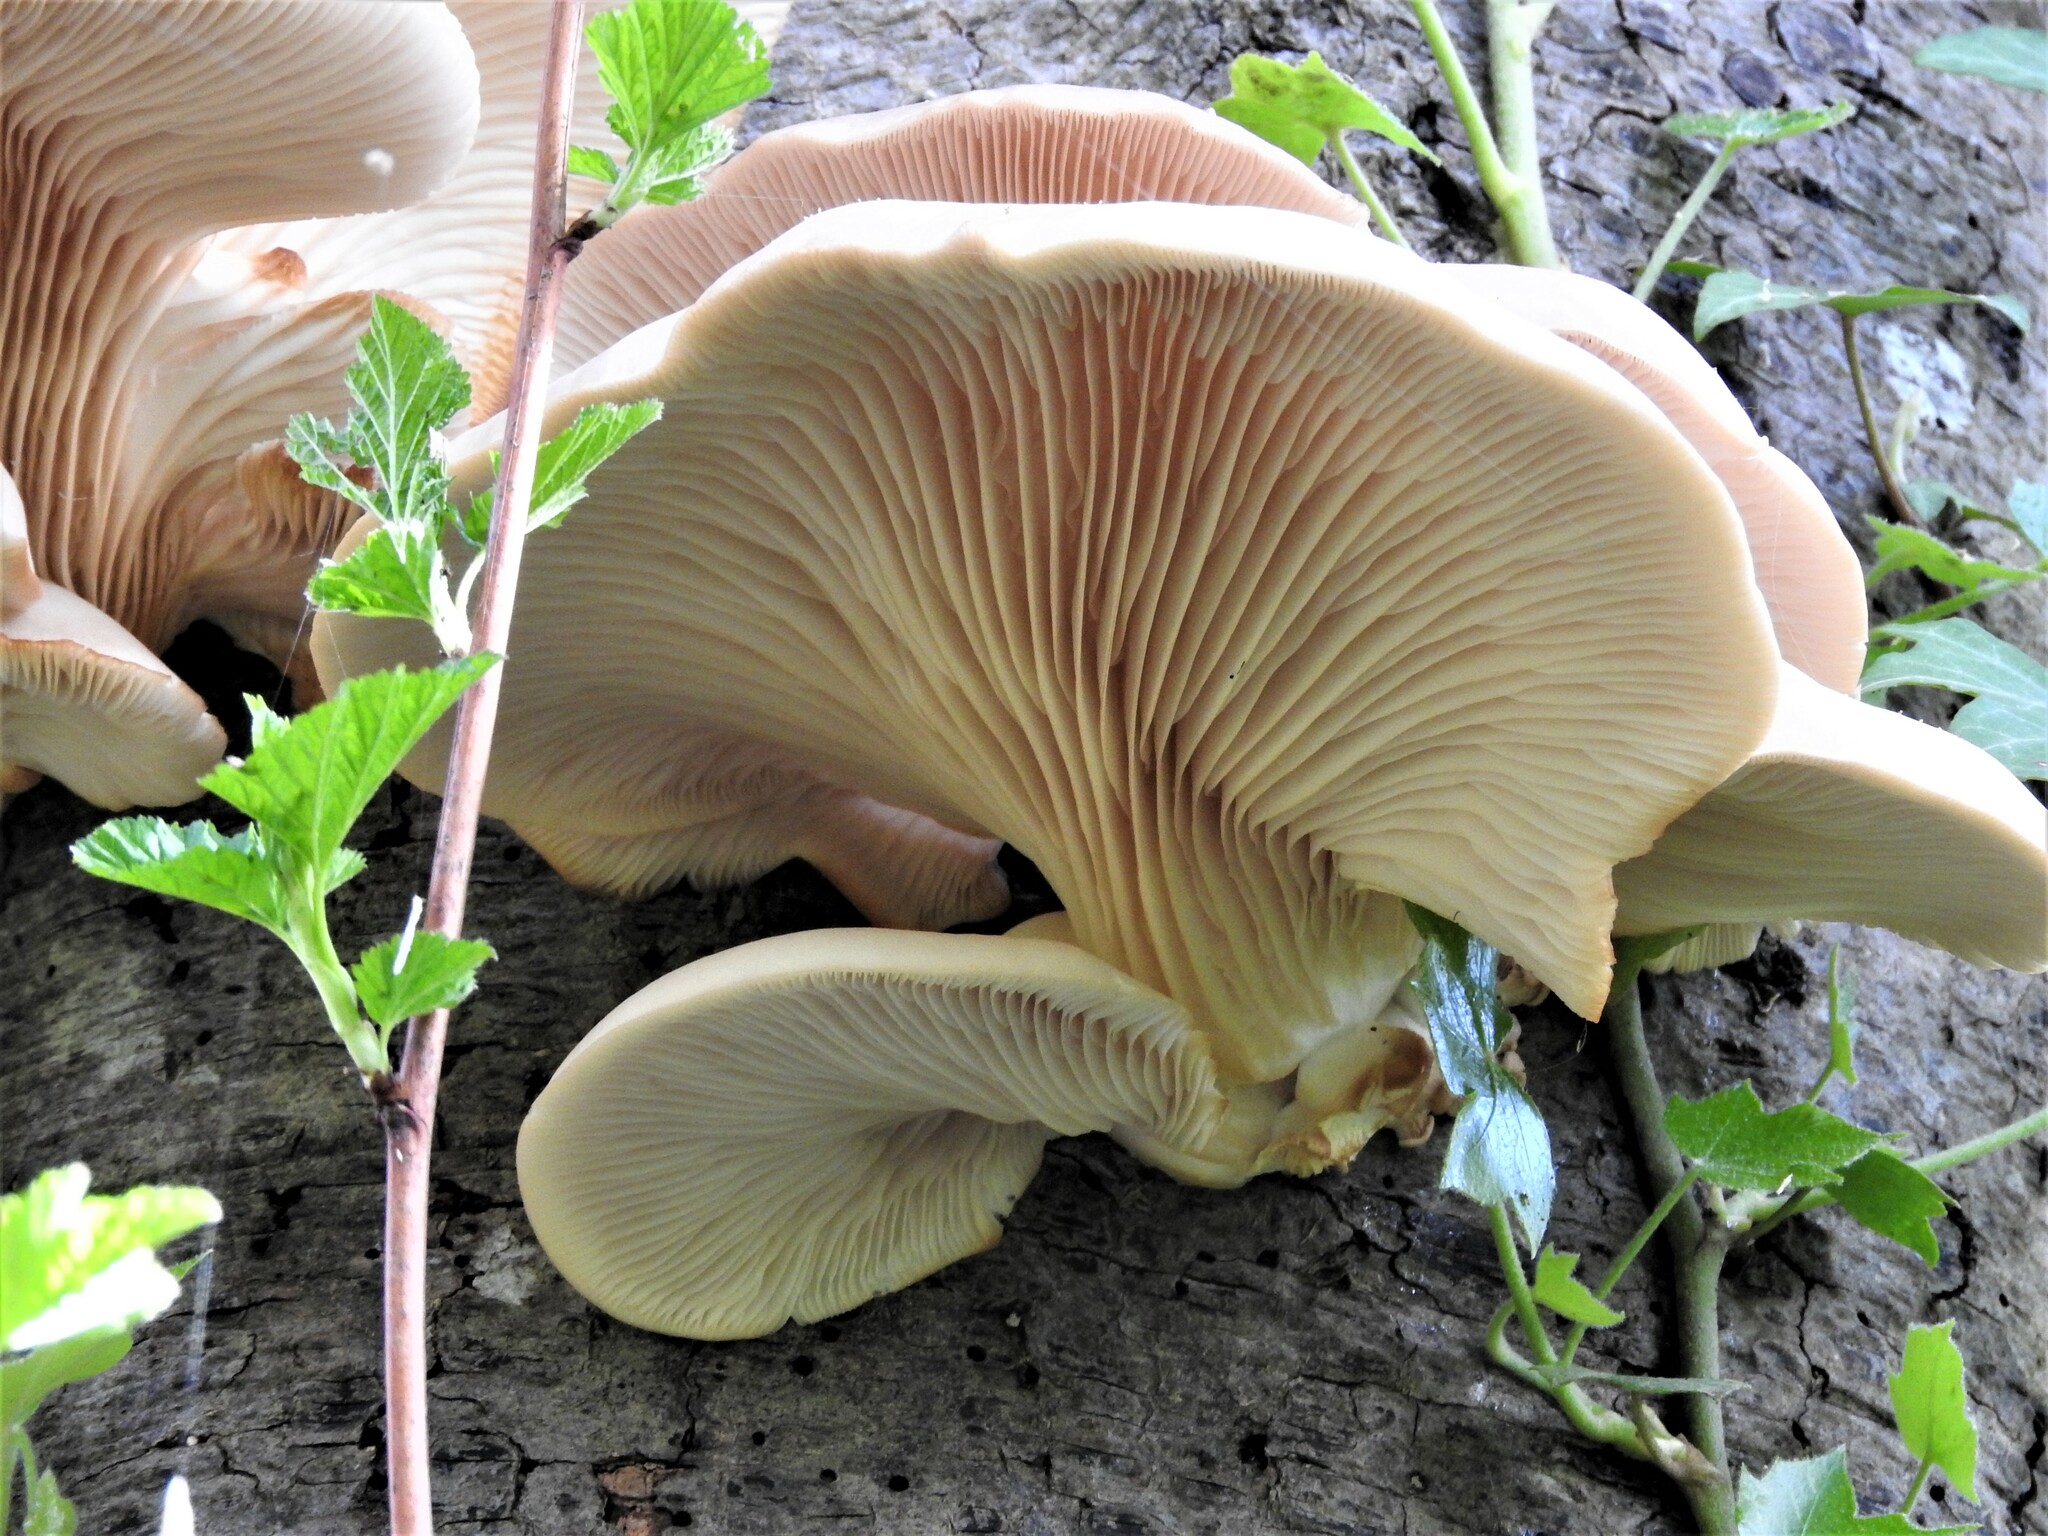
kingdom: Fungi
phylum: Basidiomycota
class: Agaricomycetes
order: Agaricales
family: Pleurotaceae
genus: Pleurotus
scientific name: Pleurotus ostreatus
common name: Oyster mushroom
